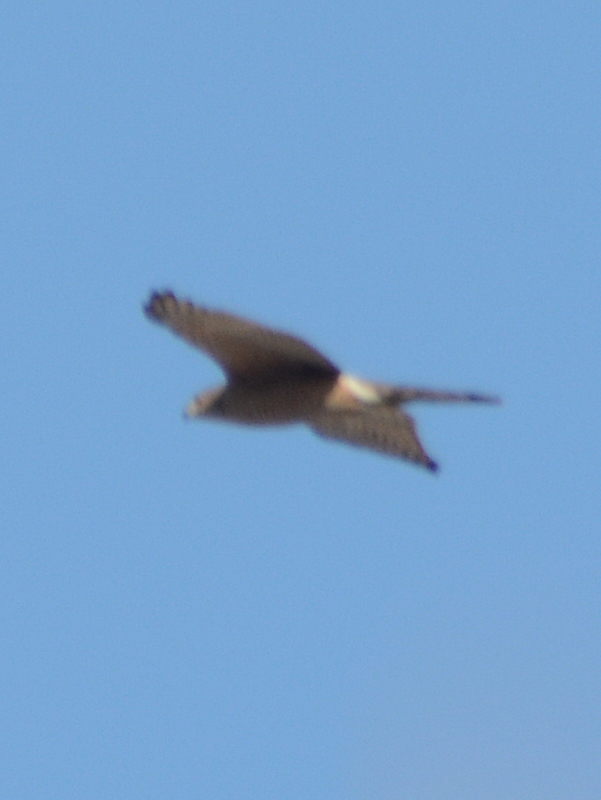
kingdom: Animalia
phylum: Chordata
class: Aves
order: Accipitriformes
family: Accipitridae
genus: Parabuteo
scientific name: Parabuteo unicinctus
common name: Harris's hawk
